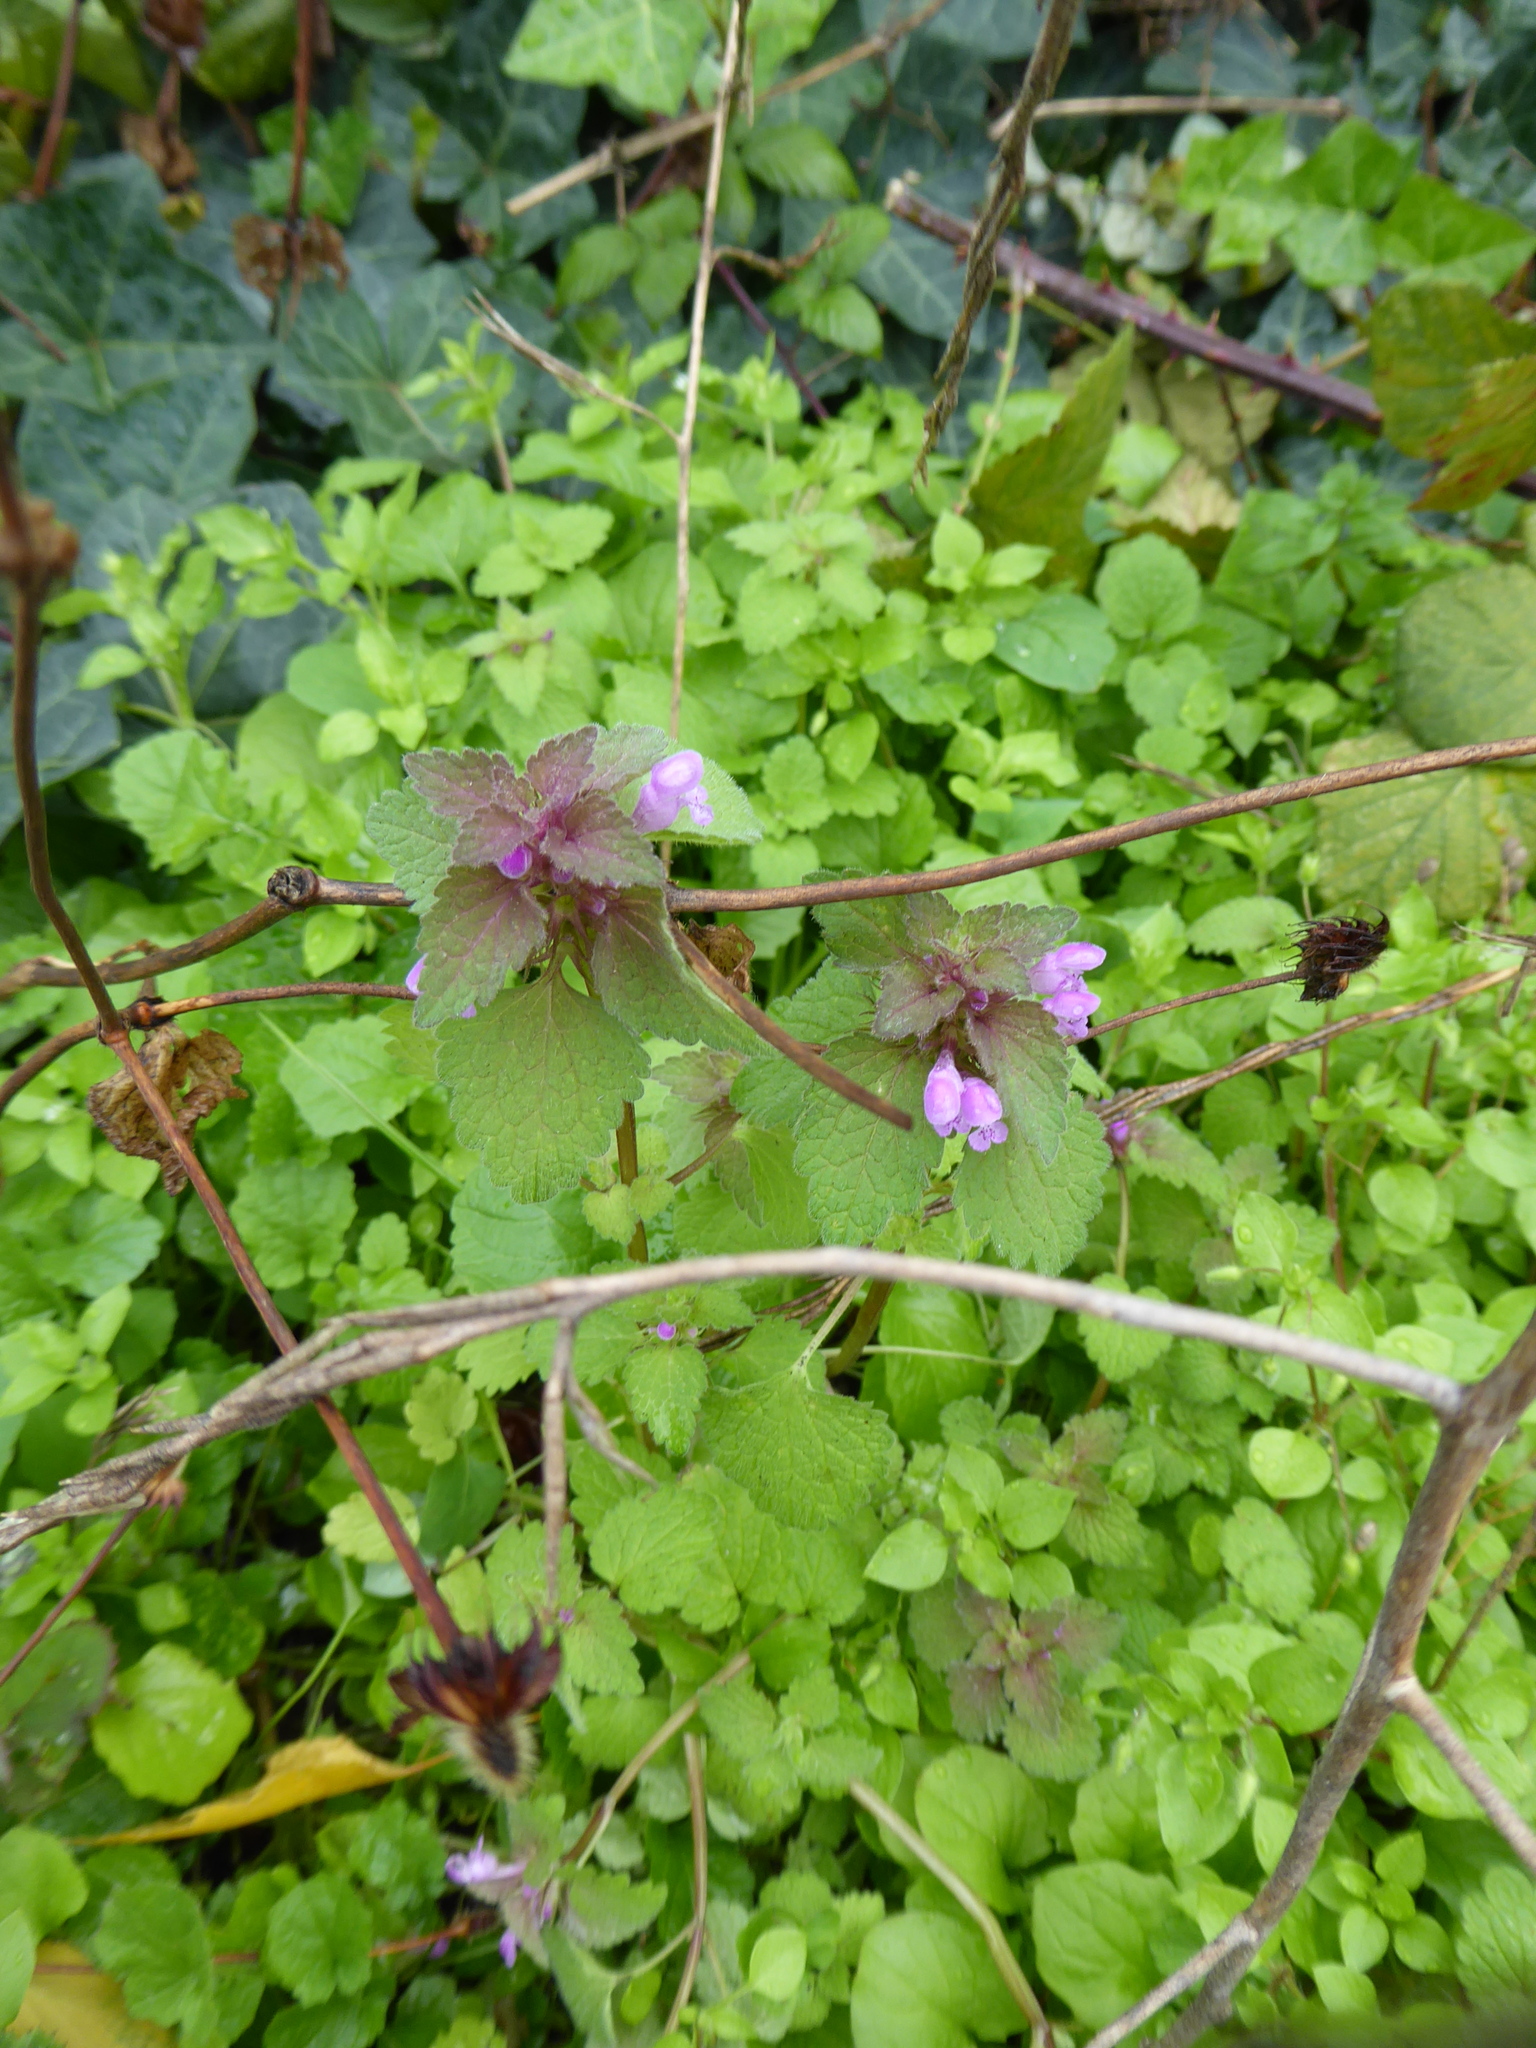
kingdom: Plantae
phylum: Tracheophyta
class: Magnoliopsida
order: Lamiales
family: Lamiaceae
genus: Lamium
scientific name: Lamium purpureum
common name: Red dead-nettle
